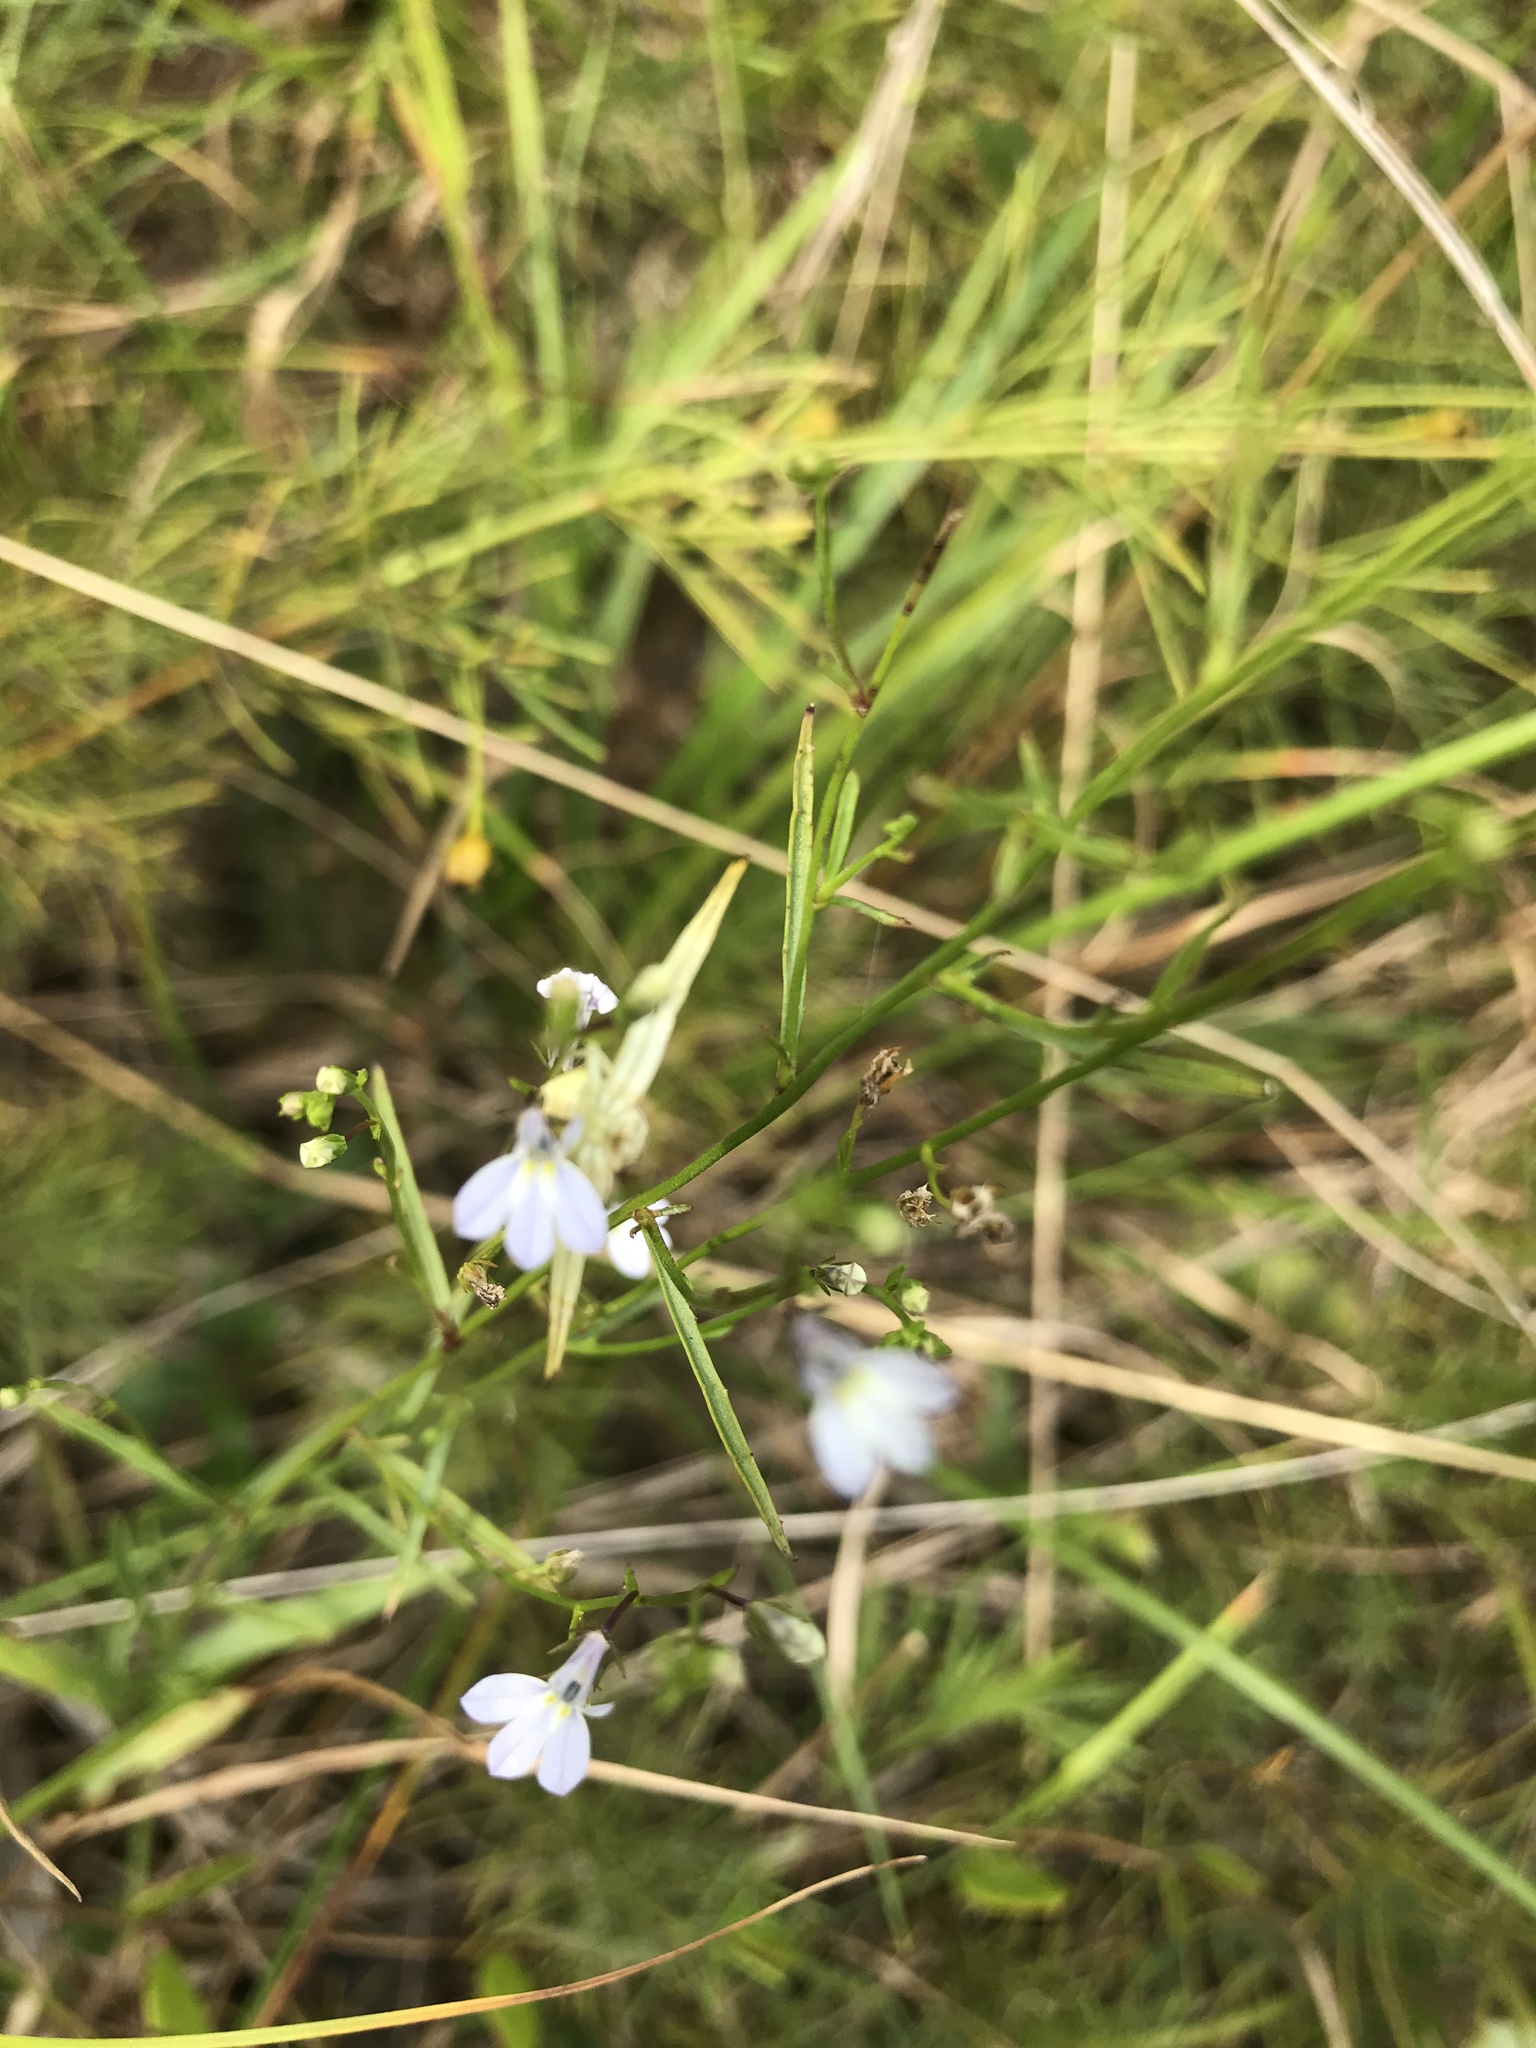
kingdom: Plantae
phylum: Tracheophyta
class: Magnoliopsida
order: Asterales
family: Campanulaceae
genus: Lobelia
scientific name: Lobelia nuttallii
